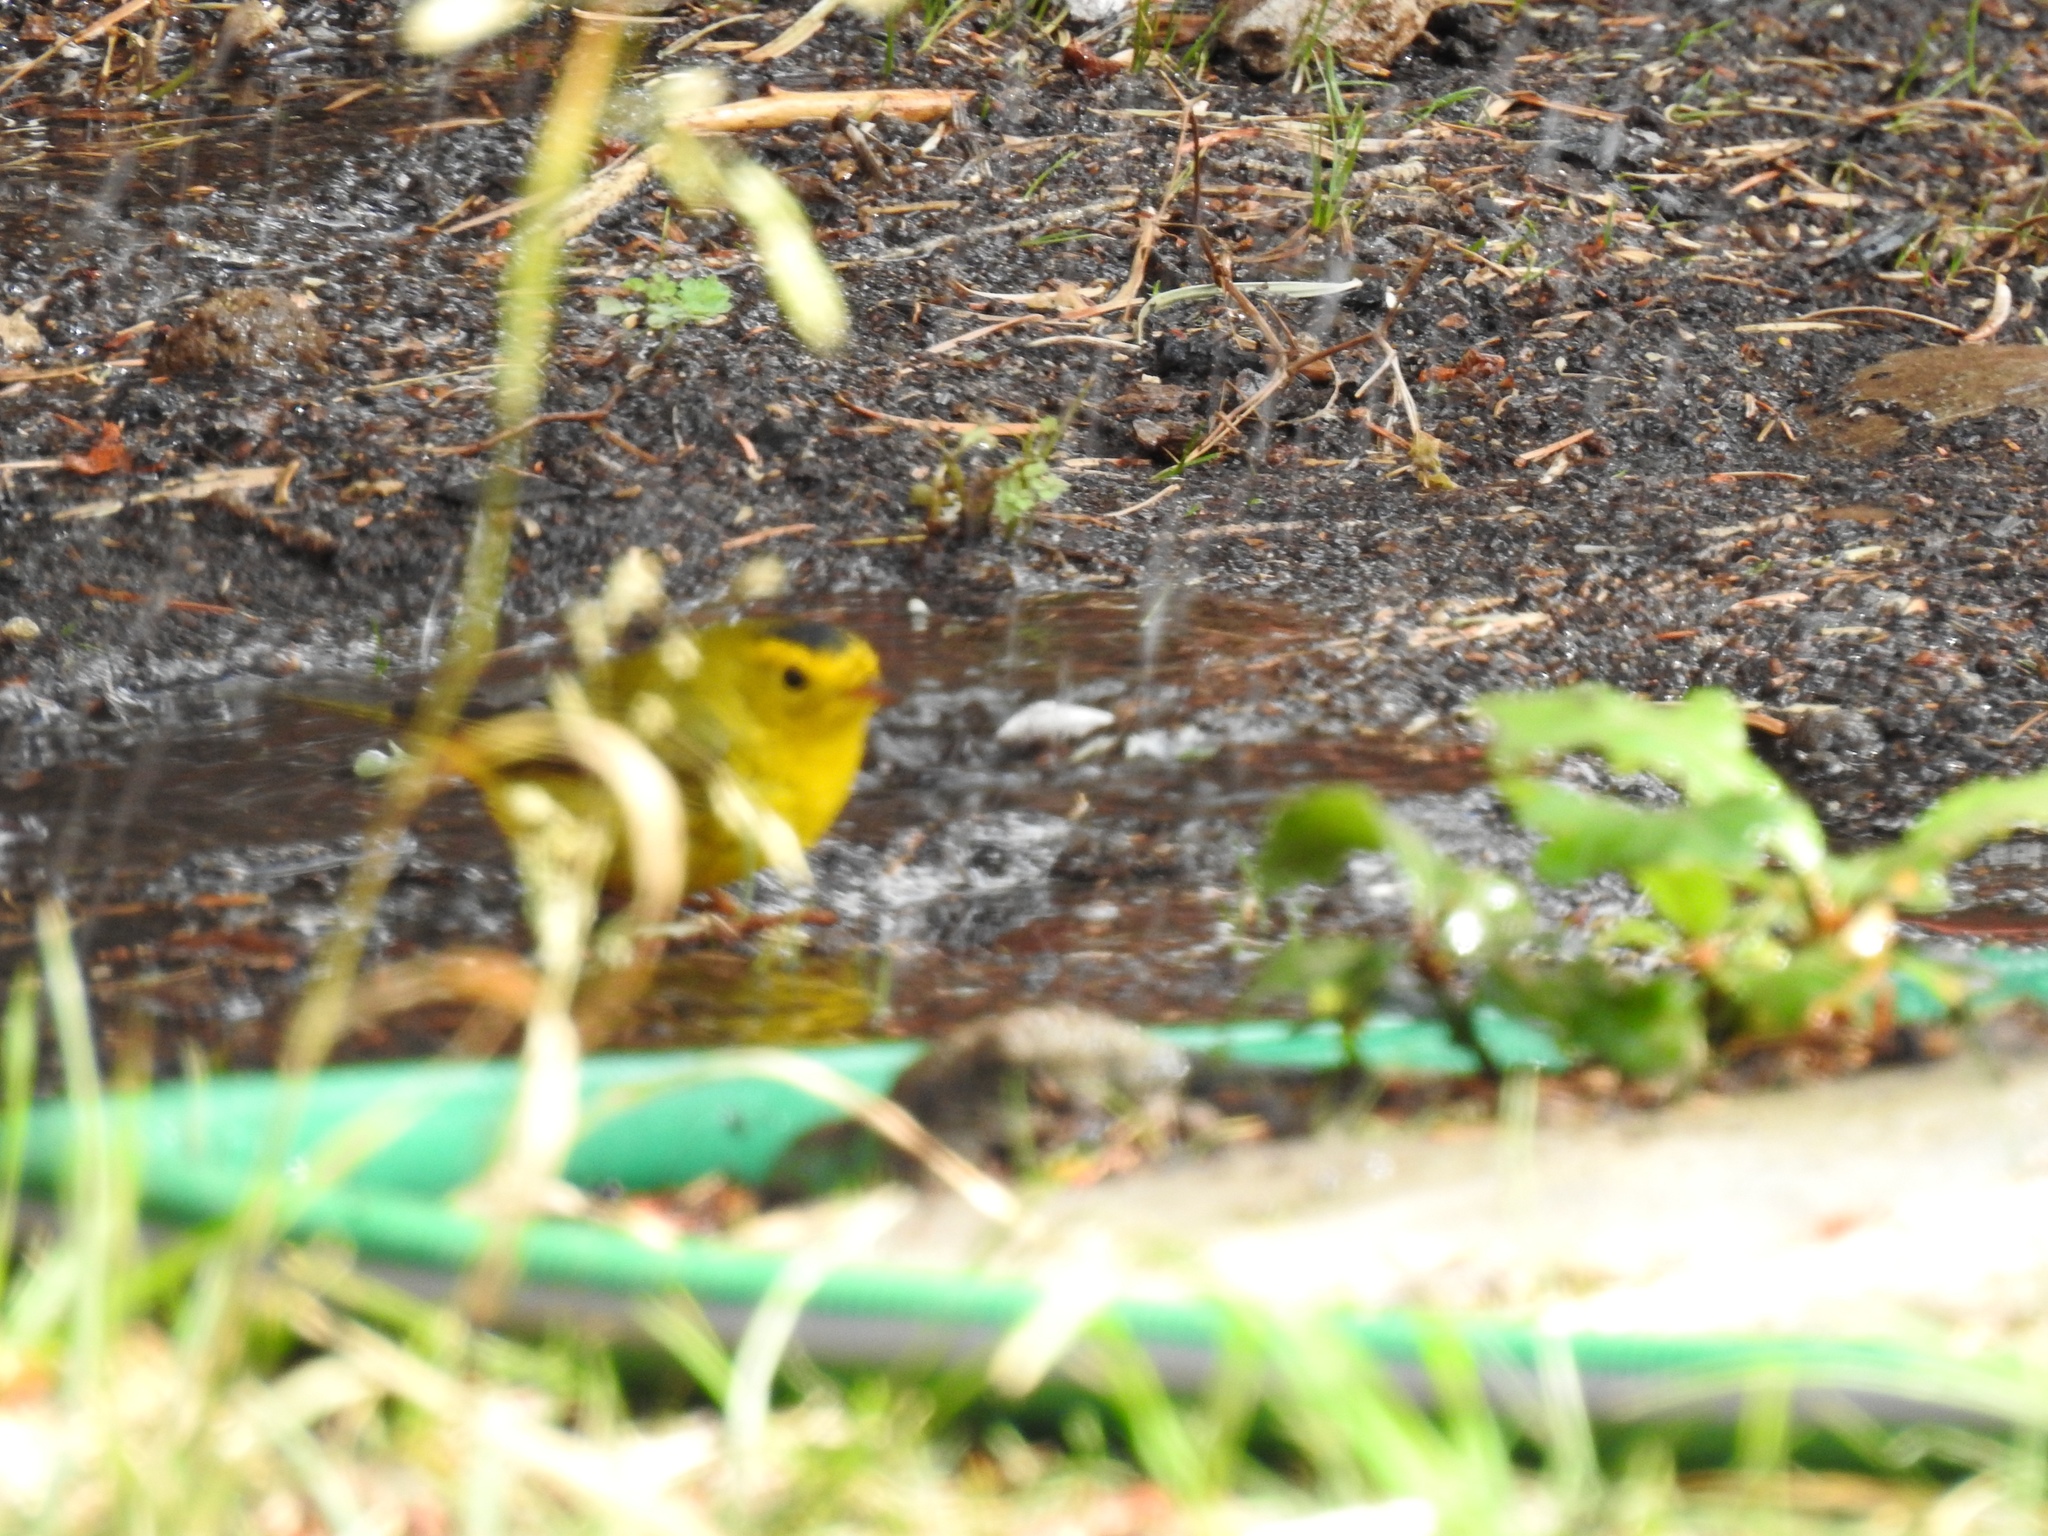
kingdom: Animalia
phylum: Chordata
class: Aves
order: Passeriformes
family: Parulidae
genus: Cardellina
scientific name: Cardellina pusilla
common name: Wilson's warbler
